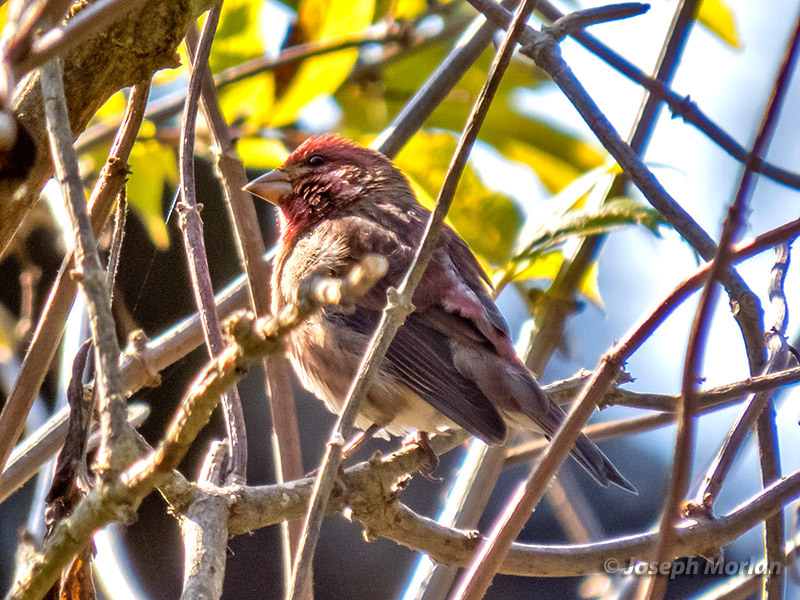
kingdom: Animalia
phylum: Chordata
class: Aves
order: Passeriformes
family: Fringillidae
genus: Haemorhous
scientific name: Haemorhous purpureus
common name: Purple finch
